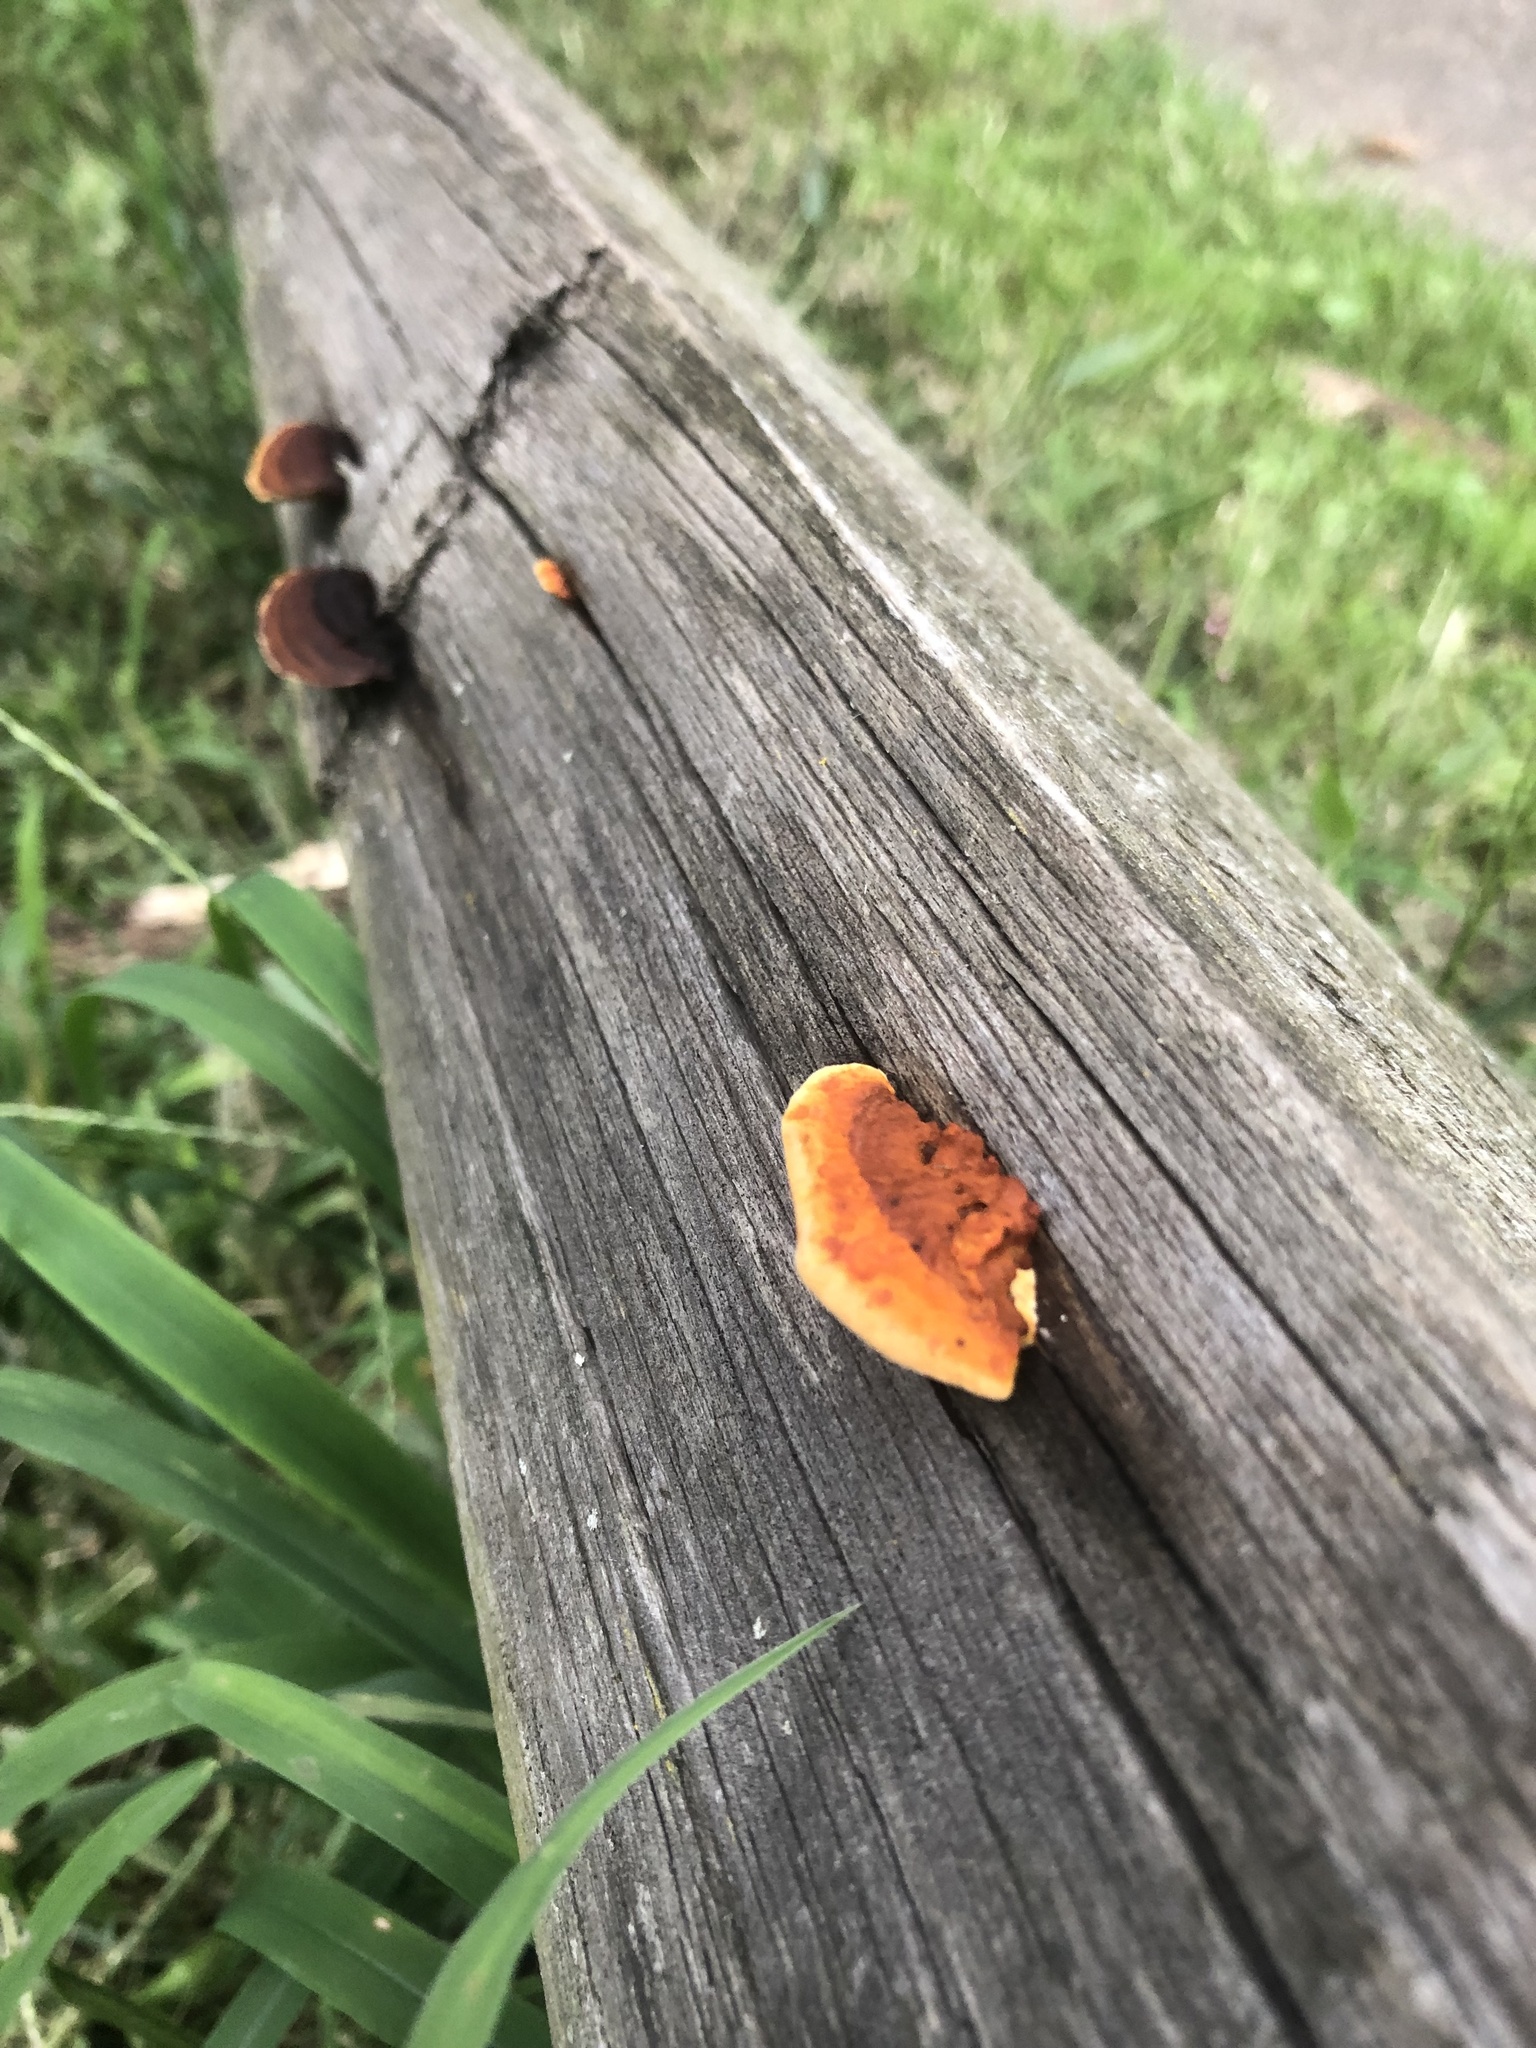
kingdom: Fungi
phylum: Basidiomycota
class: Agaricomycetes
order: Gloeophyllales
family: Gloeophyllaceae
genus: Gloeophyllum
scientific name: Gloeophyllum sepiarium
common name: Conifer mazegill
